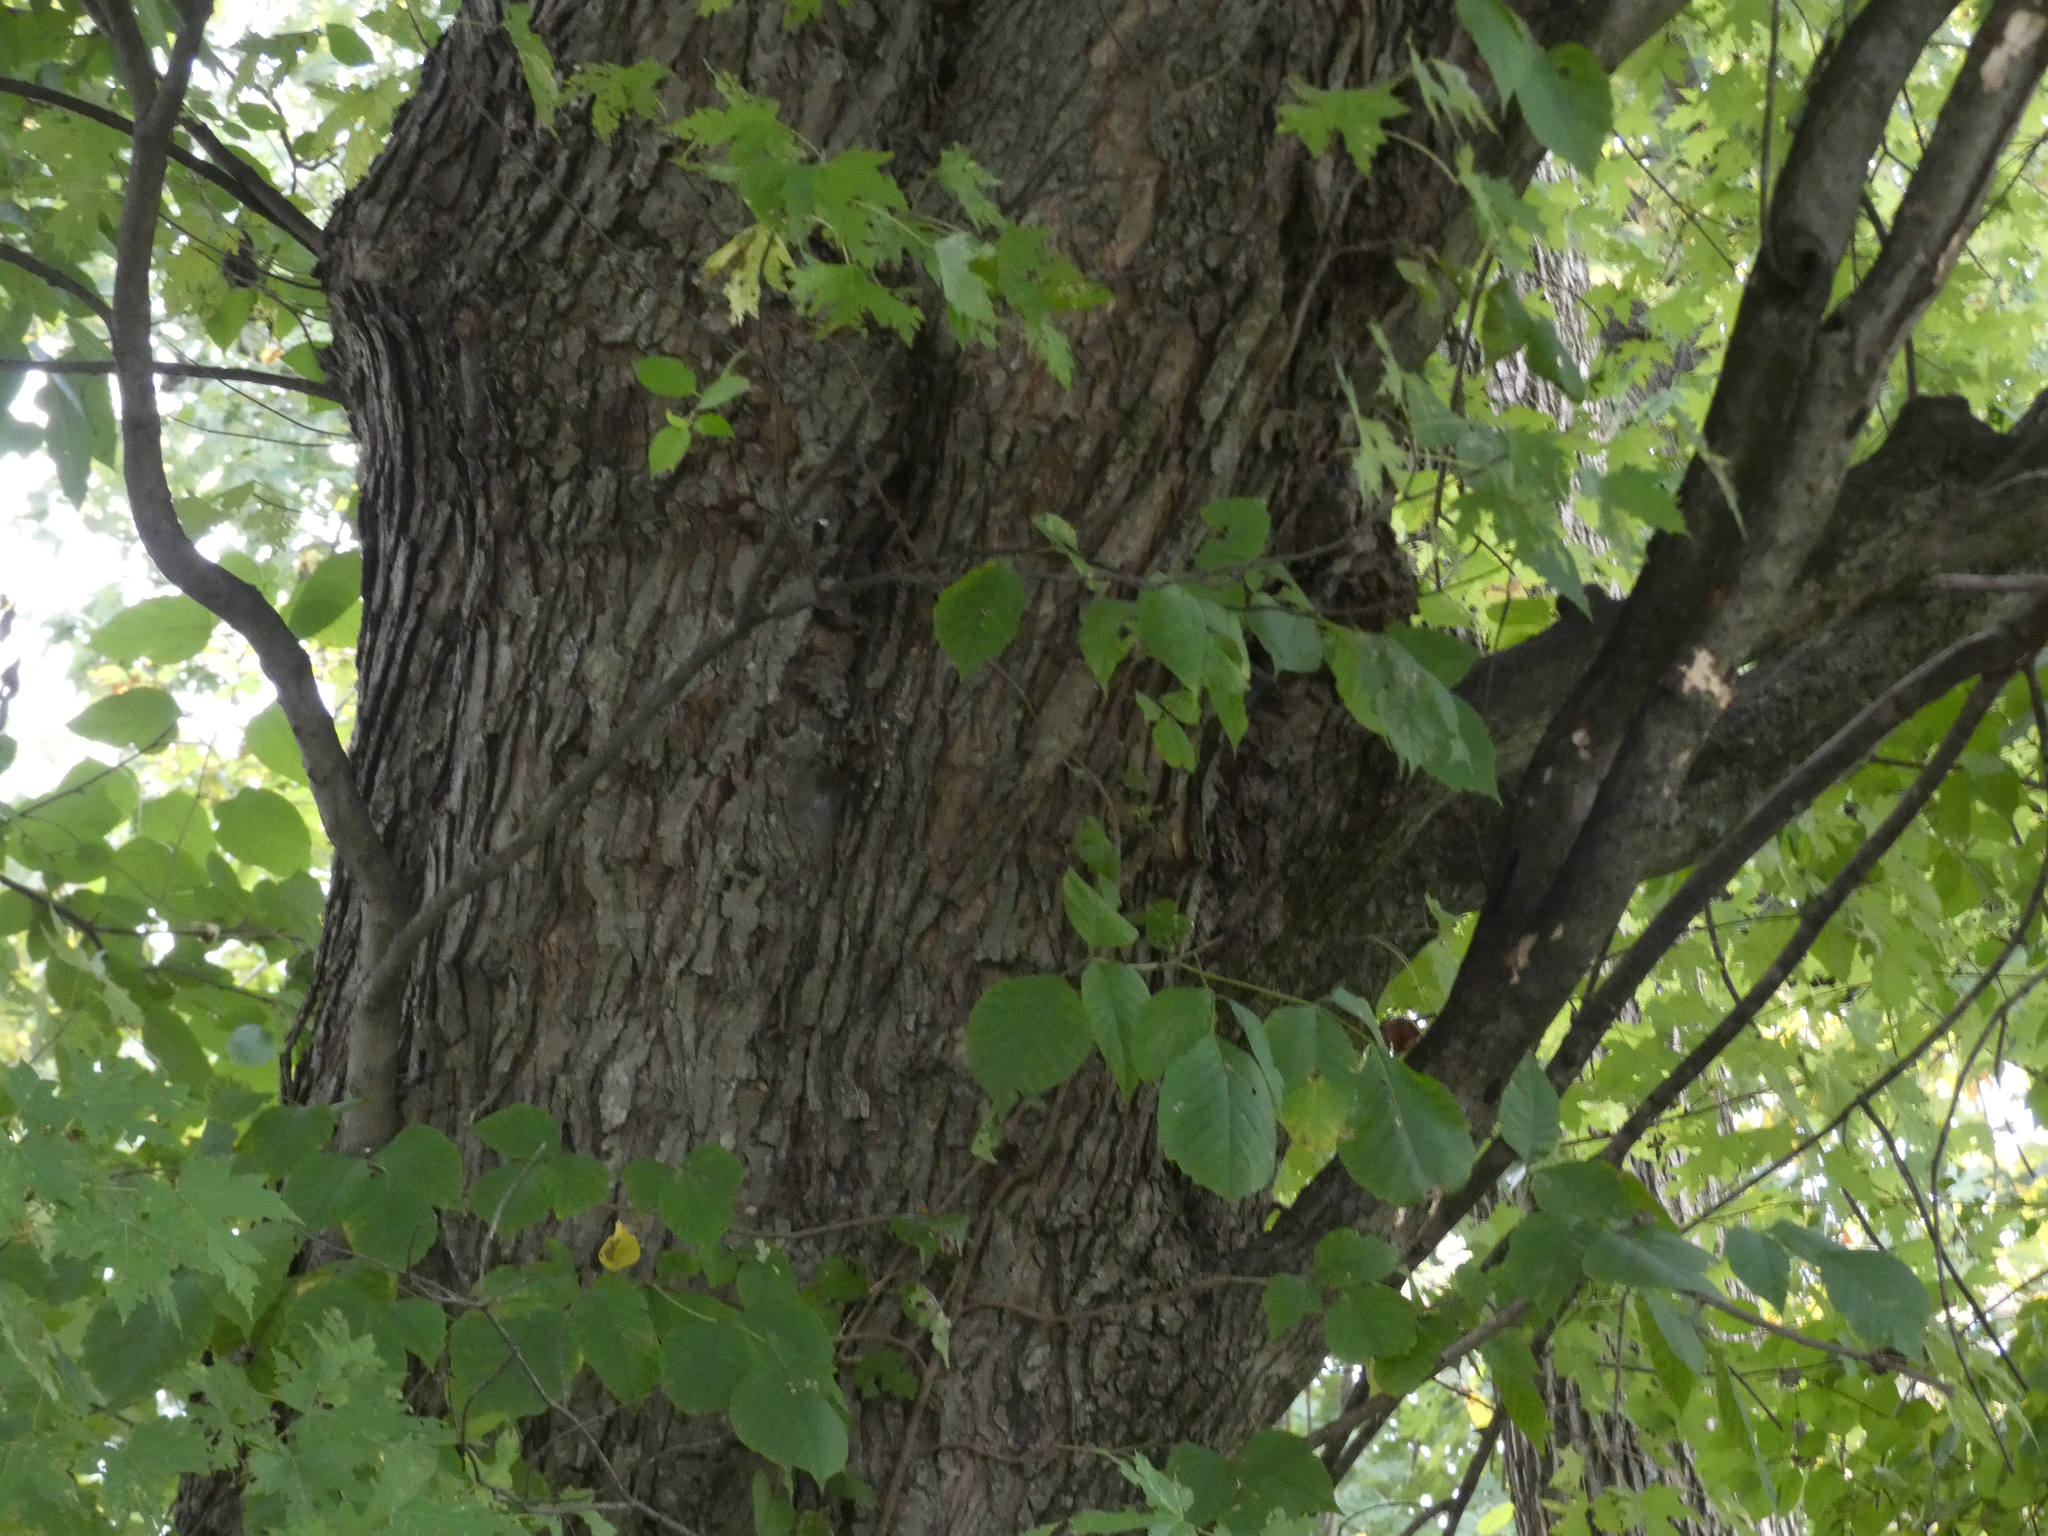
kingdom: Plantae
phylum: Tracheophyta
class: Magnoliopsida
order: Sapindales
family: Sapindaceae
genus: Acer
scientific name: Acer saccharinum
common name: Silver maple
